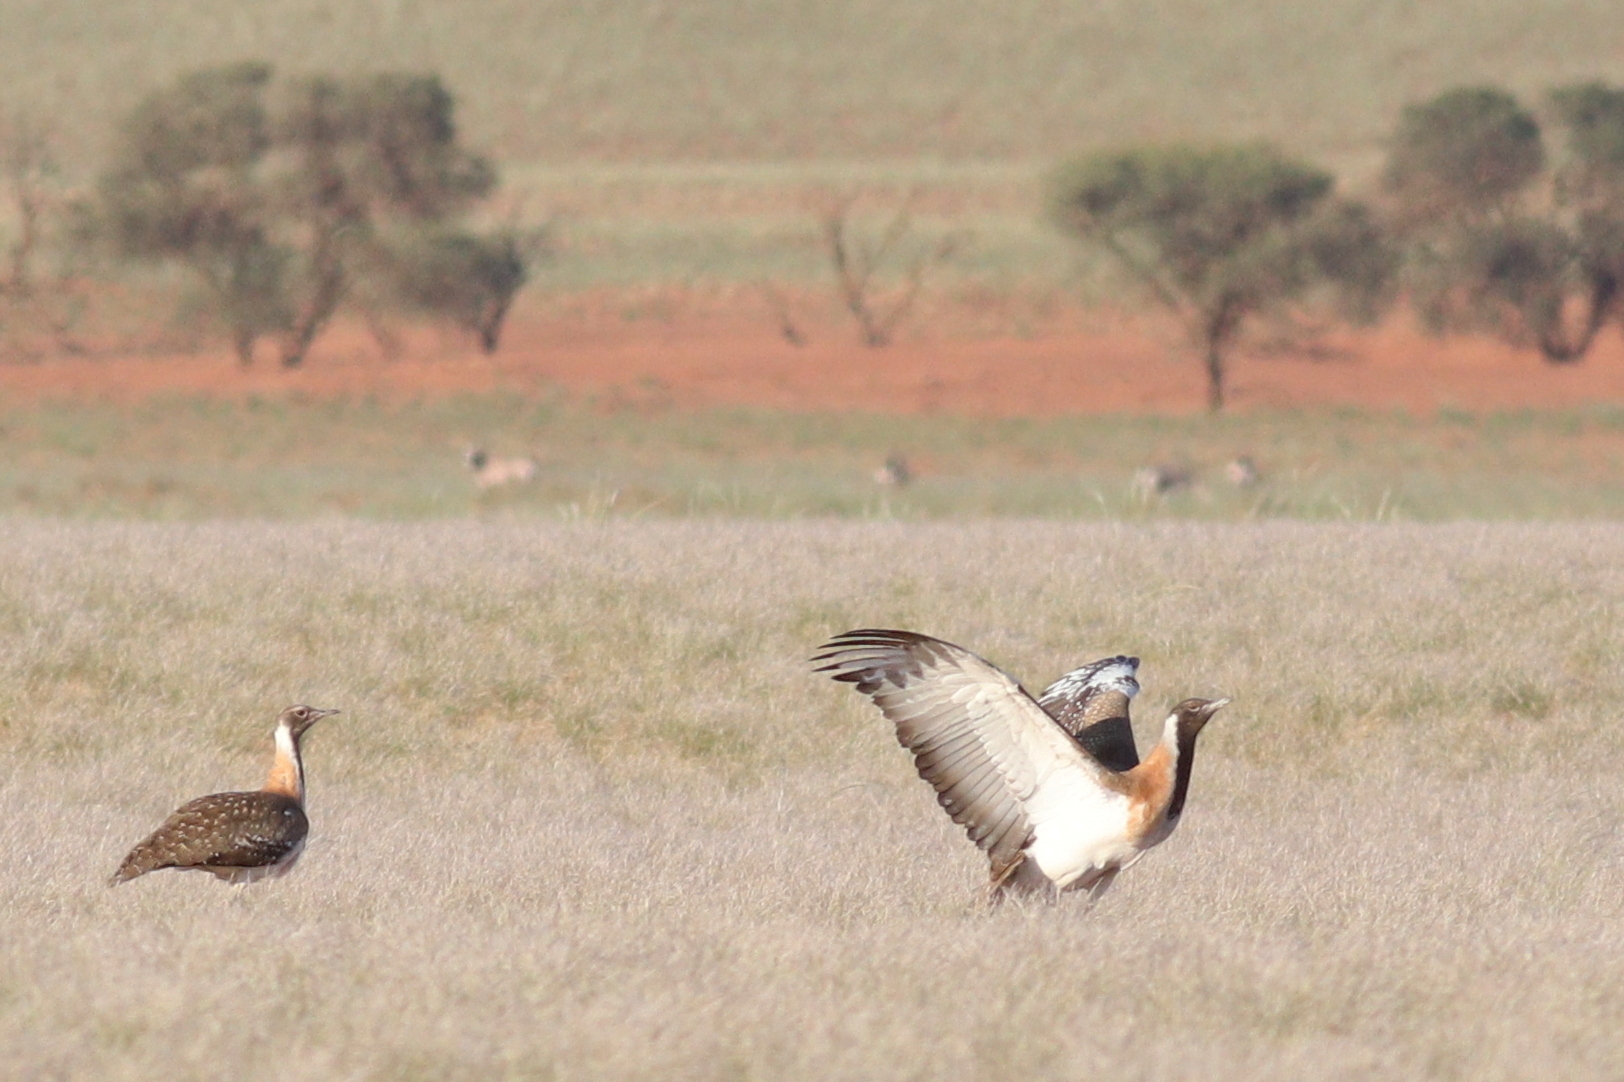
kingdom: Animalia
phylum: Chordata
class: Aves
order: Otidiformes
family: Otididae
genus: Neotis
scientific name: Neotis ludwigii
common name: Ludwig's bustard
